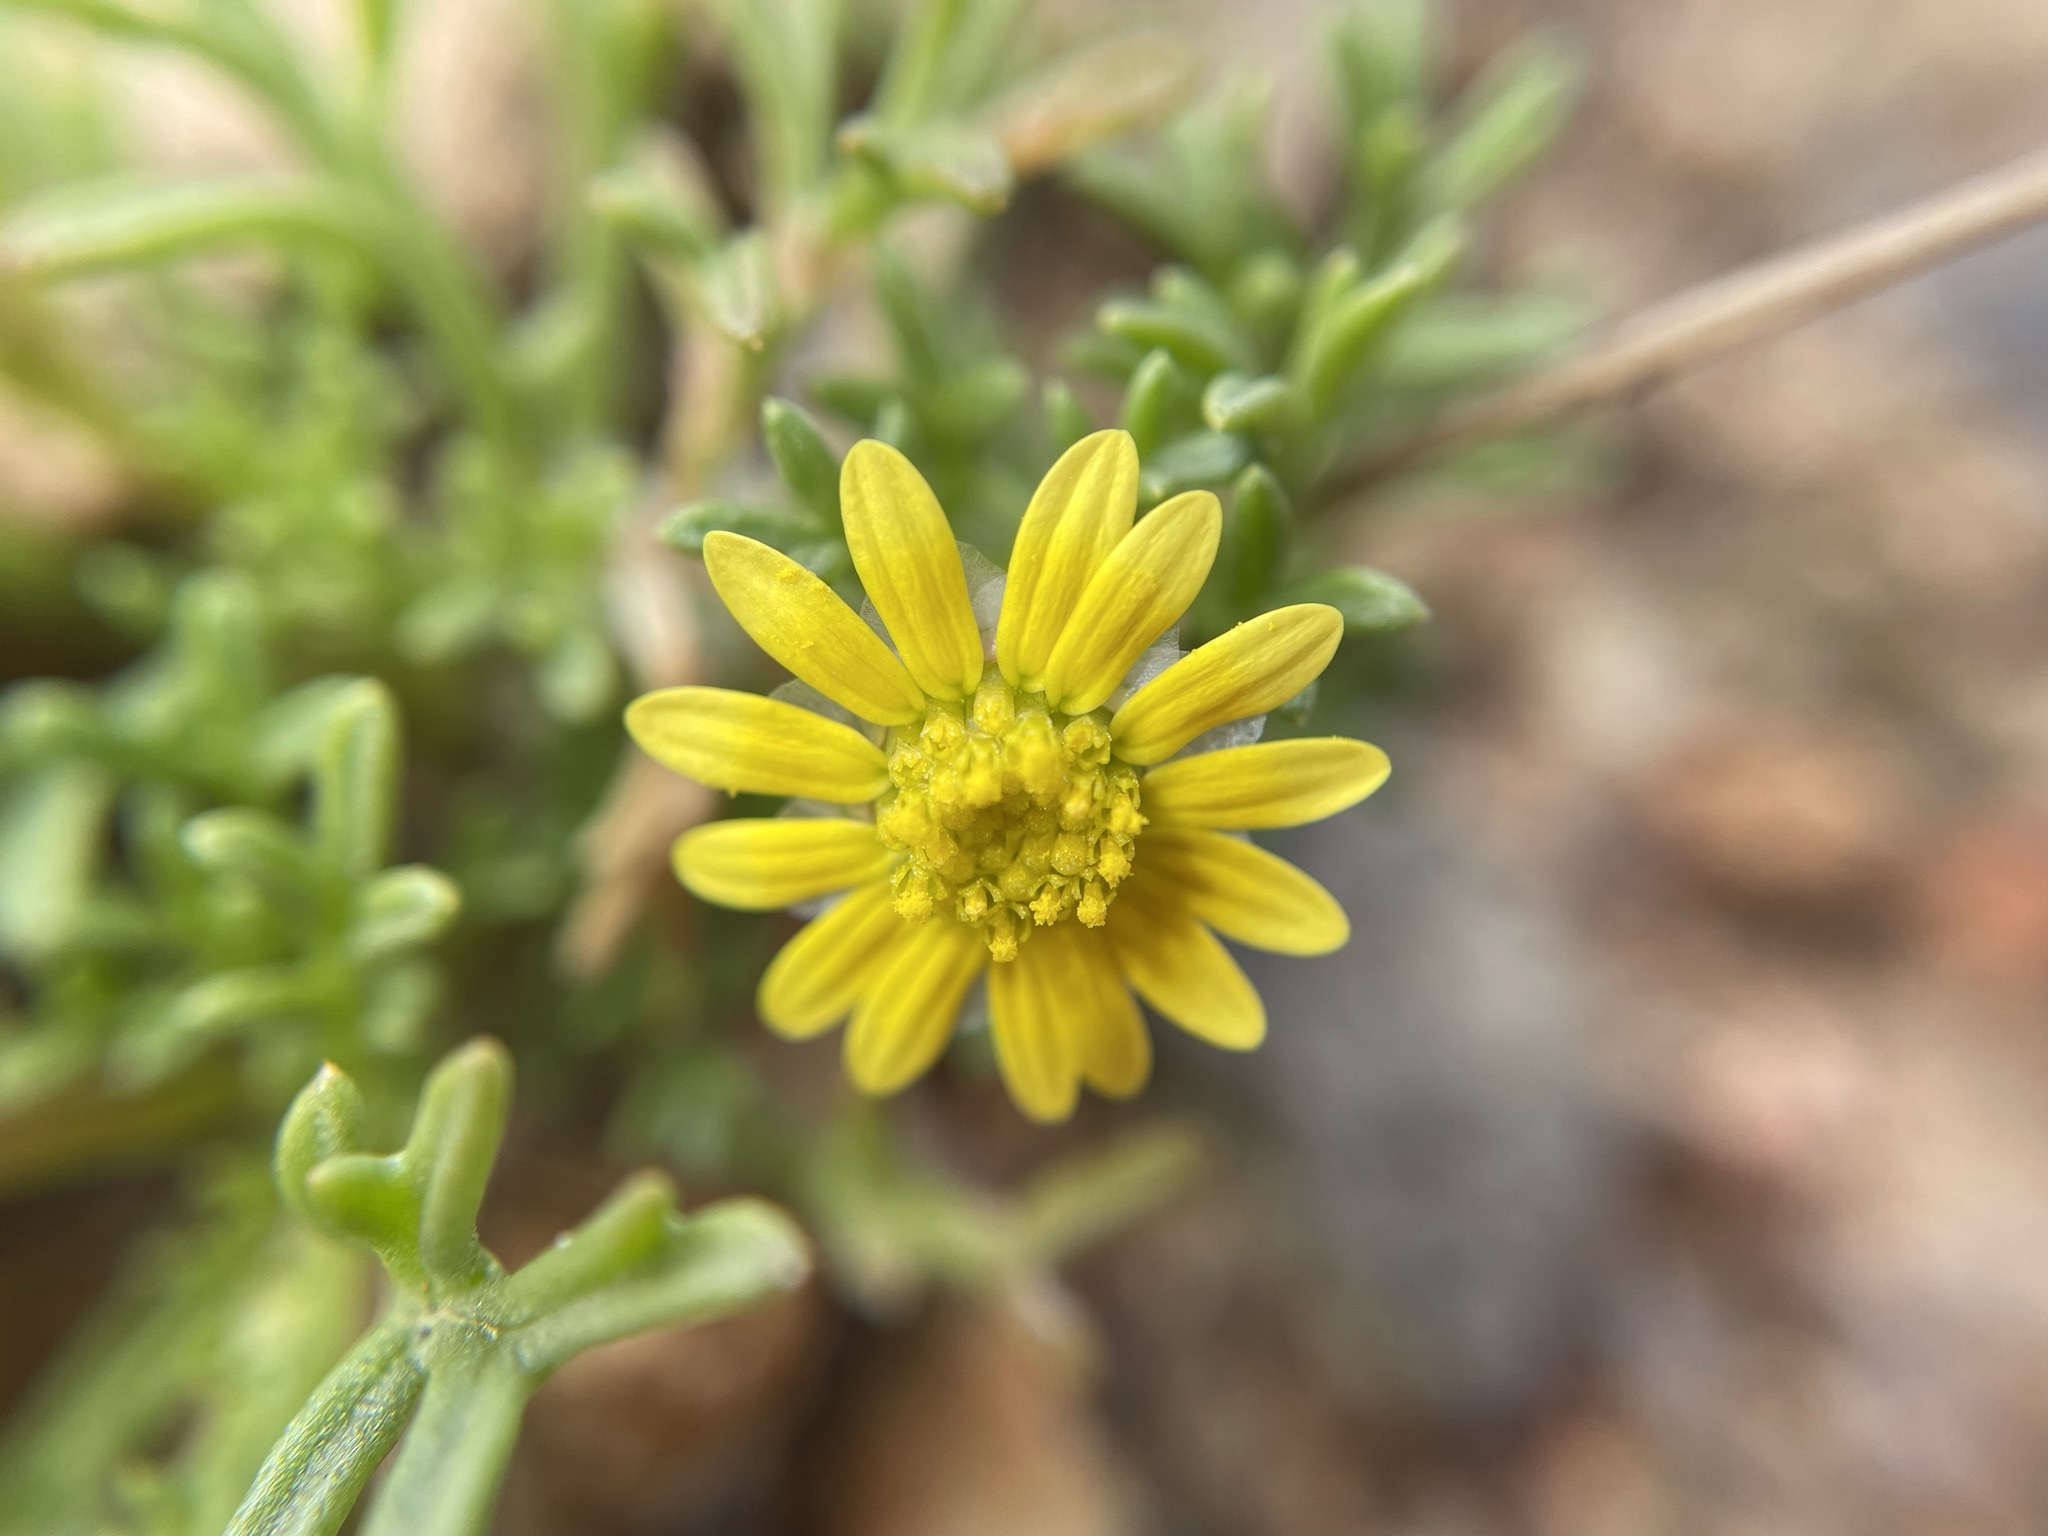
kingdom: Plantae
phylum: Tracheophyta
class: Magnoliopsida
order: Asterales
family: Asteraceae
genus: Ursinia
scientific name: Ursinia nana
